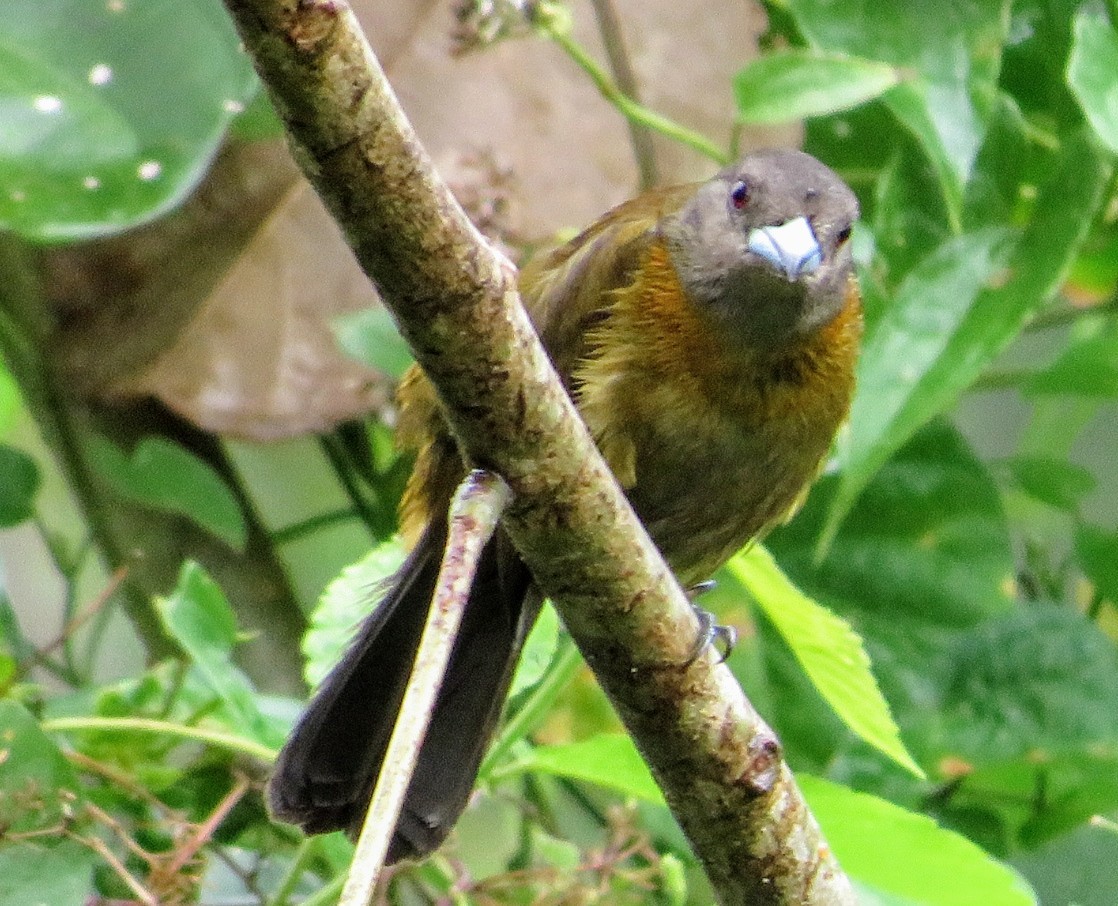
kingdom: Animalia
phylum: Chordata
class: Aves
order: Passeriformes
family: Thraupidae
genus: Ramphocelus
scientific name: Ramphocelus passerinii
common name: Passerini's tanager
